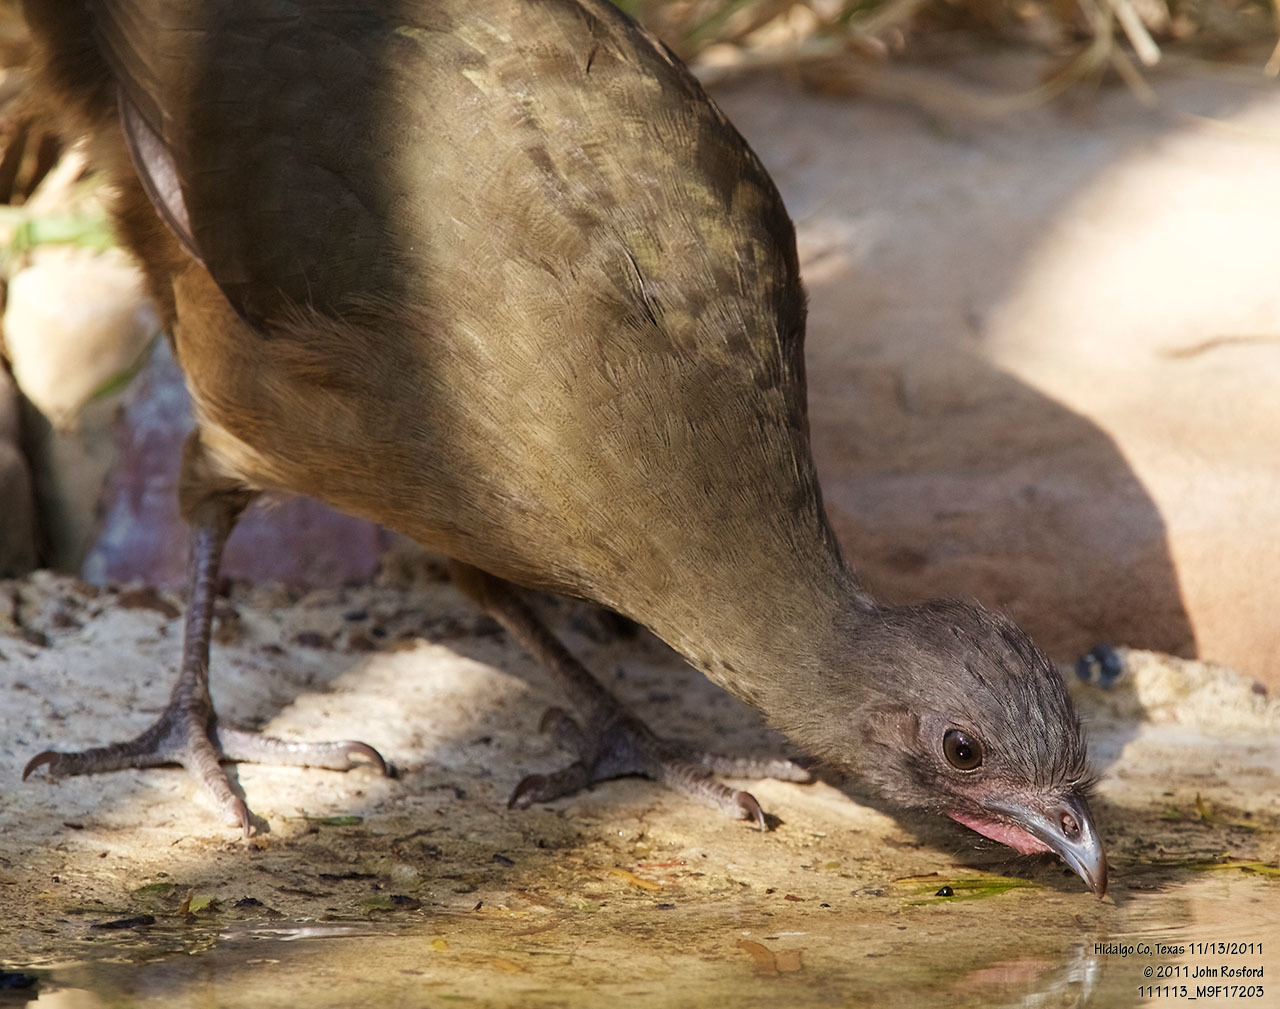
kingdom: Animalia
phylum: Chordata
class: Aves
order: Galliformes
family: Cracidae
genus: Ortalis
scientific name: Ortalis vetula
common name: Plain chachalaca
